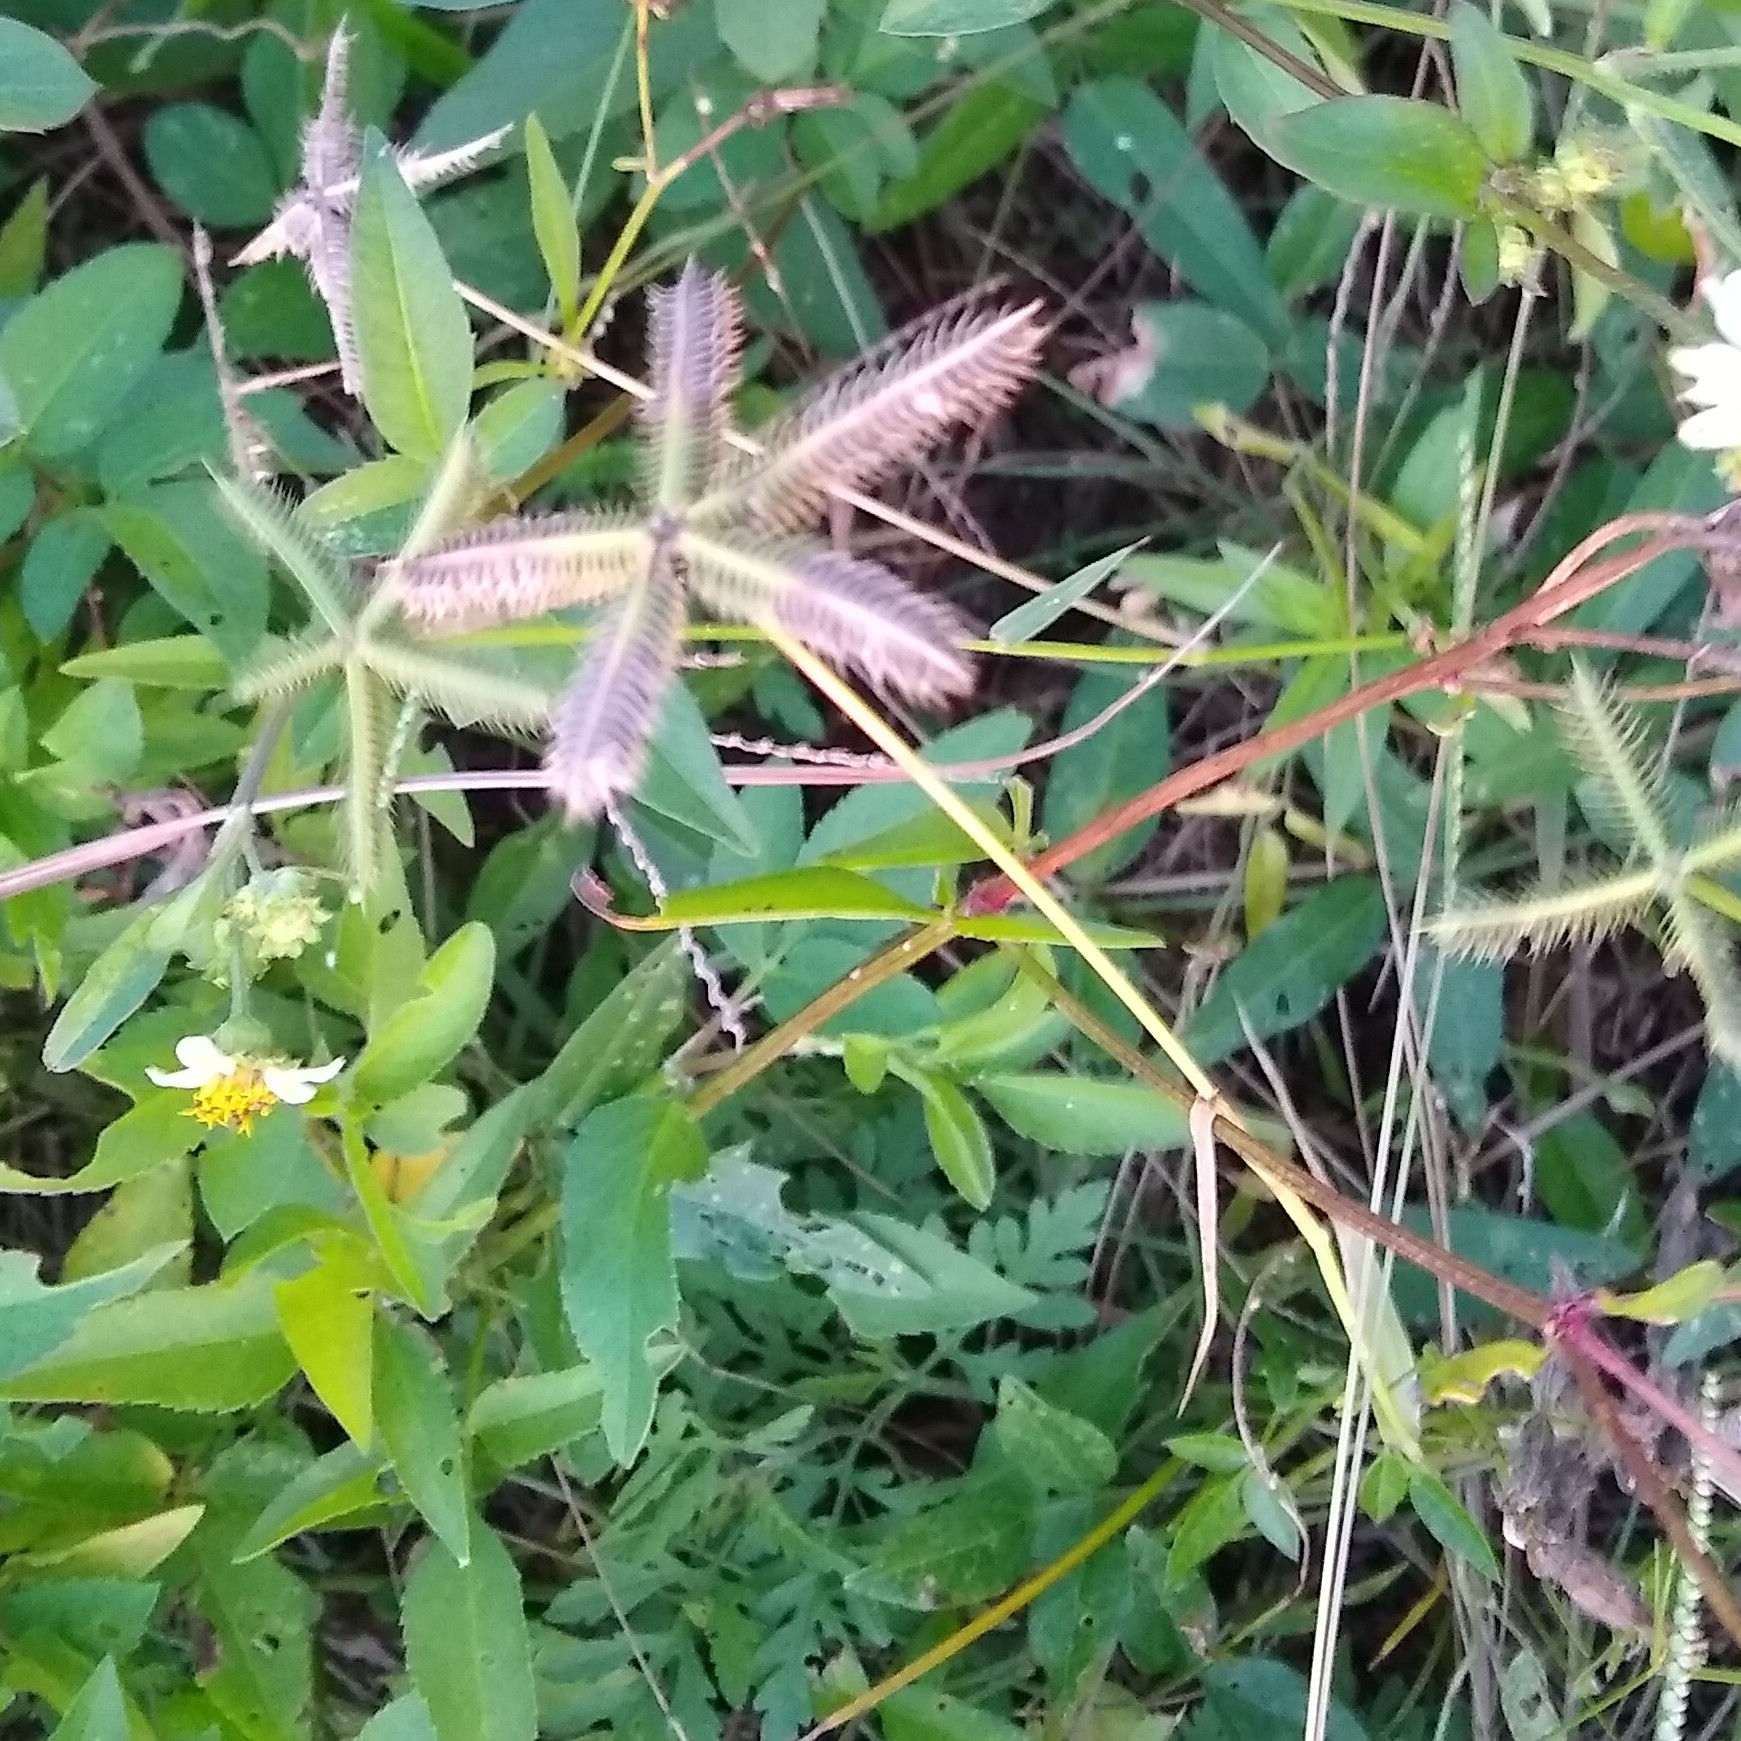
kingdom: Plantae
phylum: Tracheophyta
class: Liliopsida
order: Poales
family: Poaceae
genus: Dactyloctenium
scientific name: Dactyloctenium aegyptium
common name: Egyptian grass
